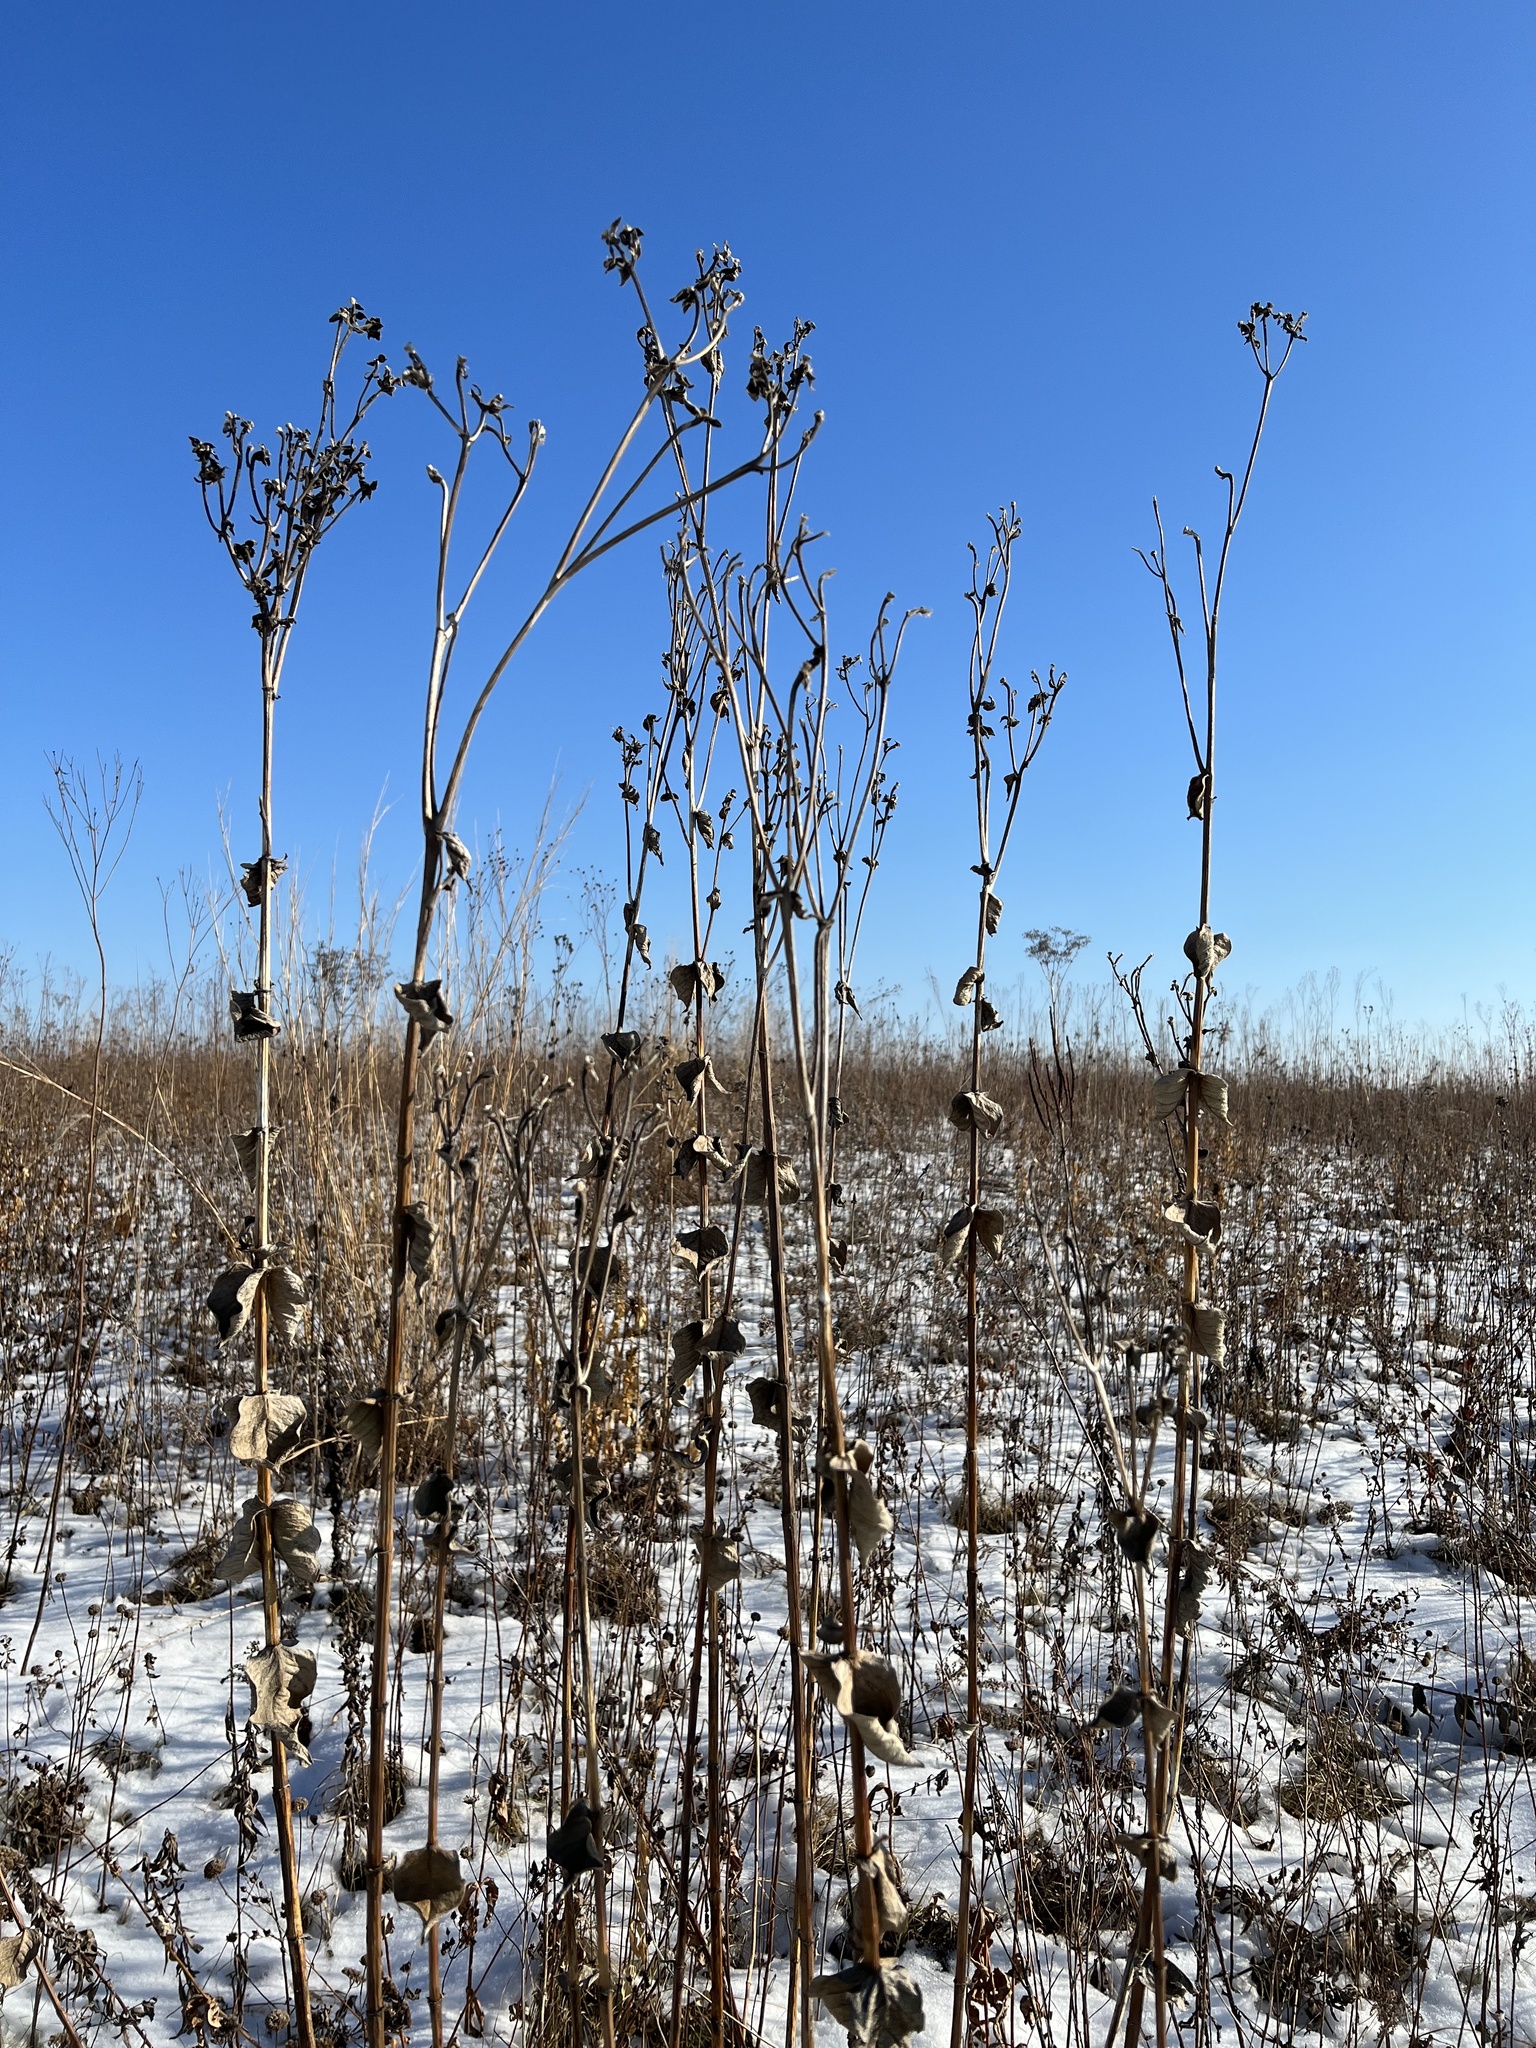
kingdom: Plantae
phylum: Tracheophyta
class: Magnoliopsida
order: Asterales
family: Asteraceae
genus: Silphium
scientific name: Silphium integrifolium
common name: Whole-leaf rosinweed
